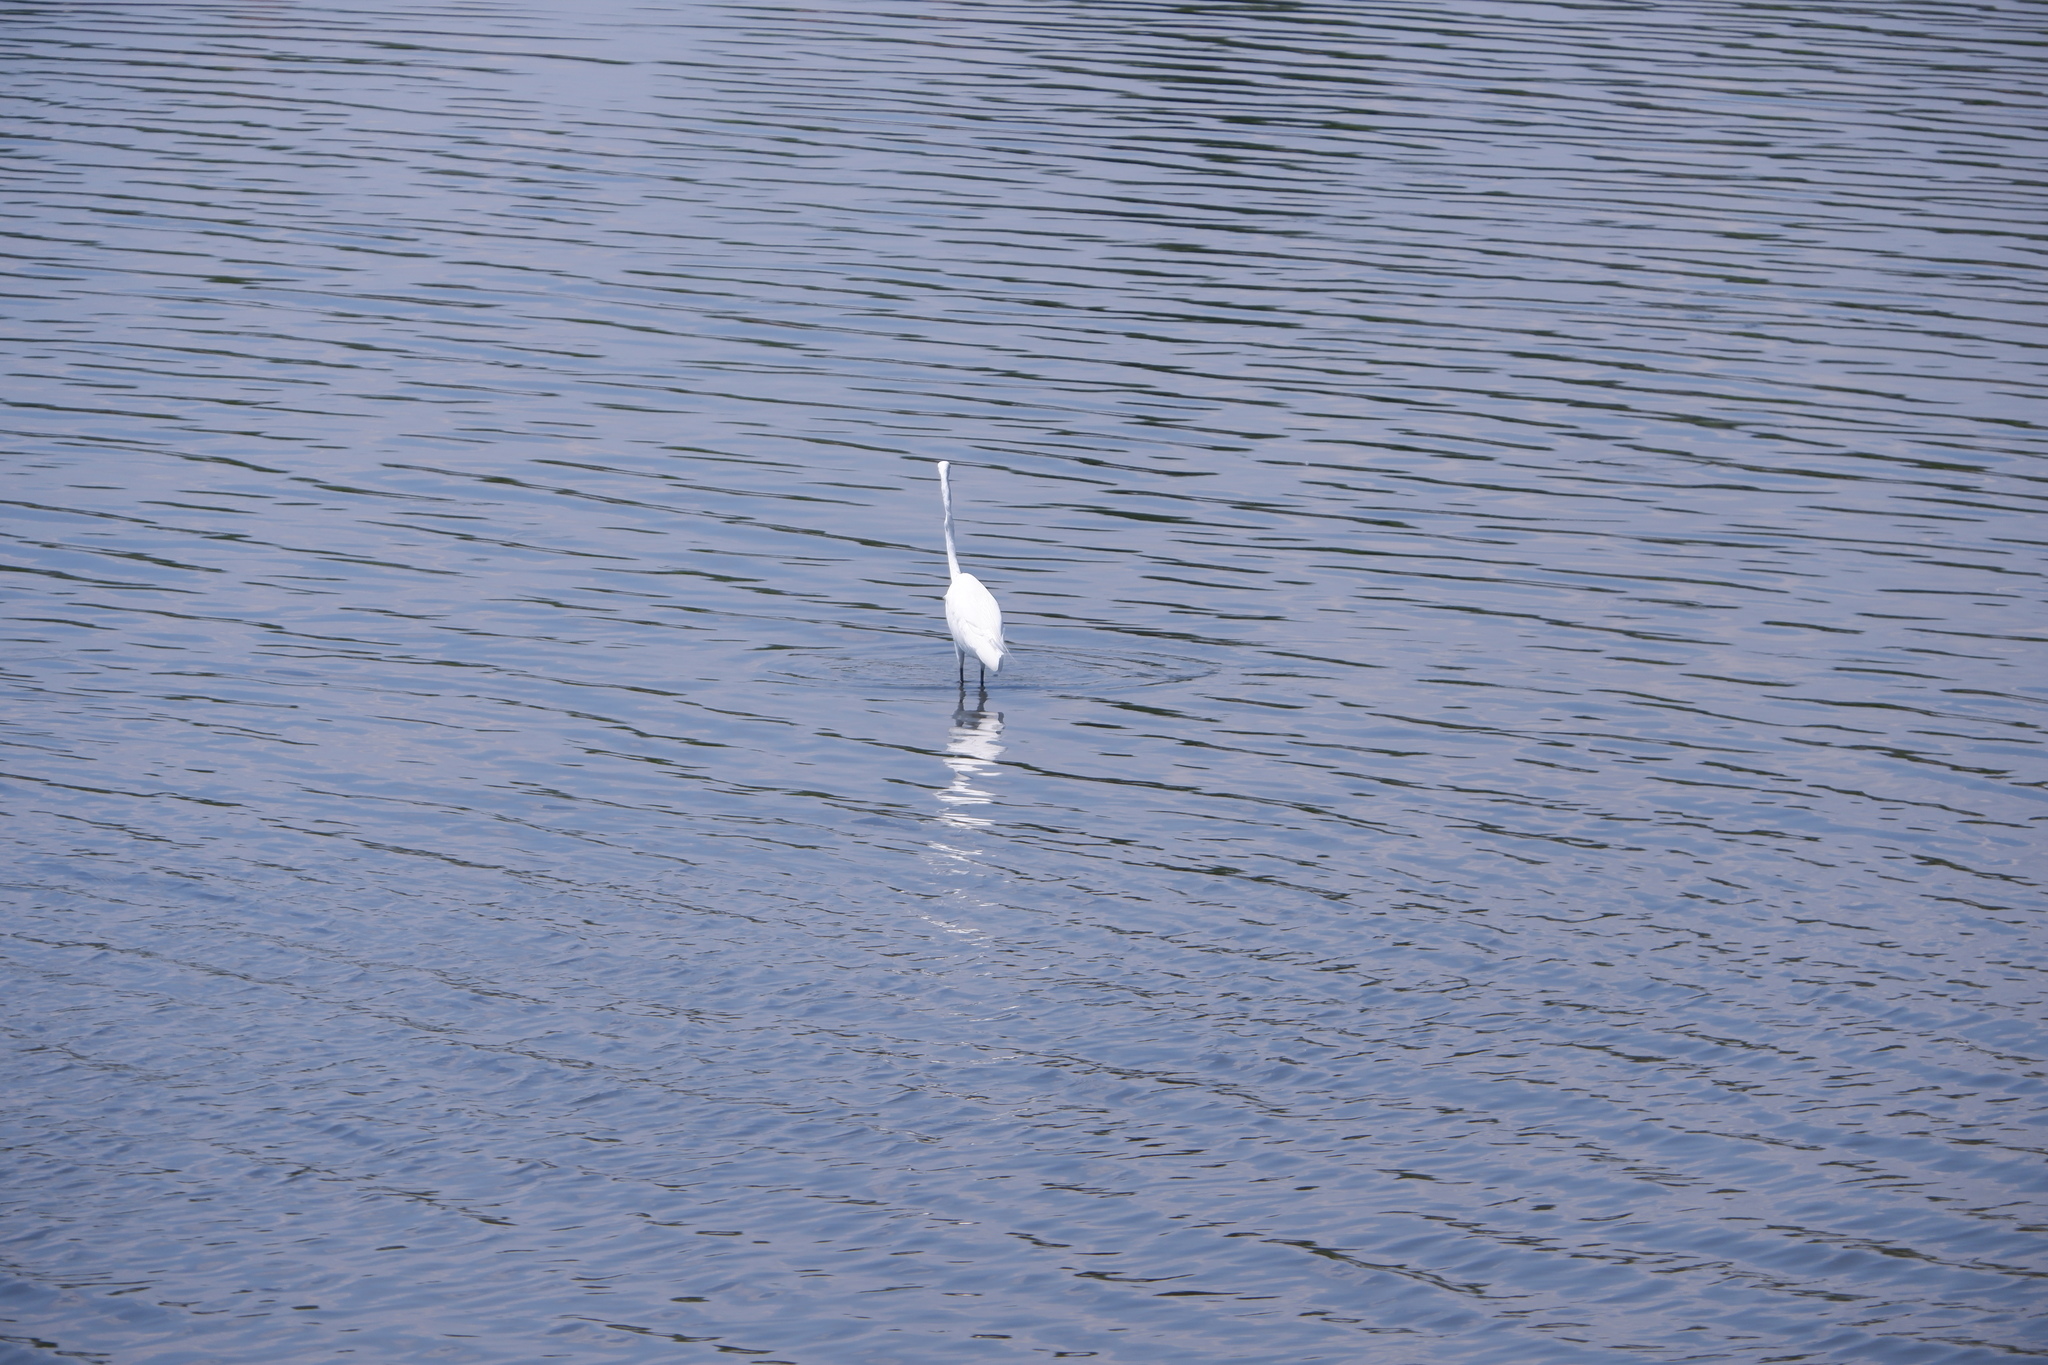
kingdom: Animalia
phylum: Chordata
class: Aves
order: Pelecaniformes
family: Ardeidae
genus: Ardea
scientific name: Ardea alba
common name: Great egret
